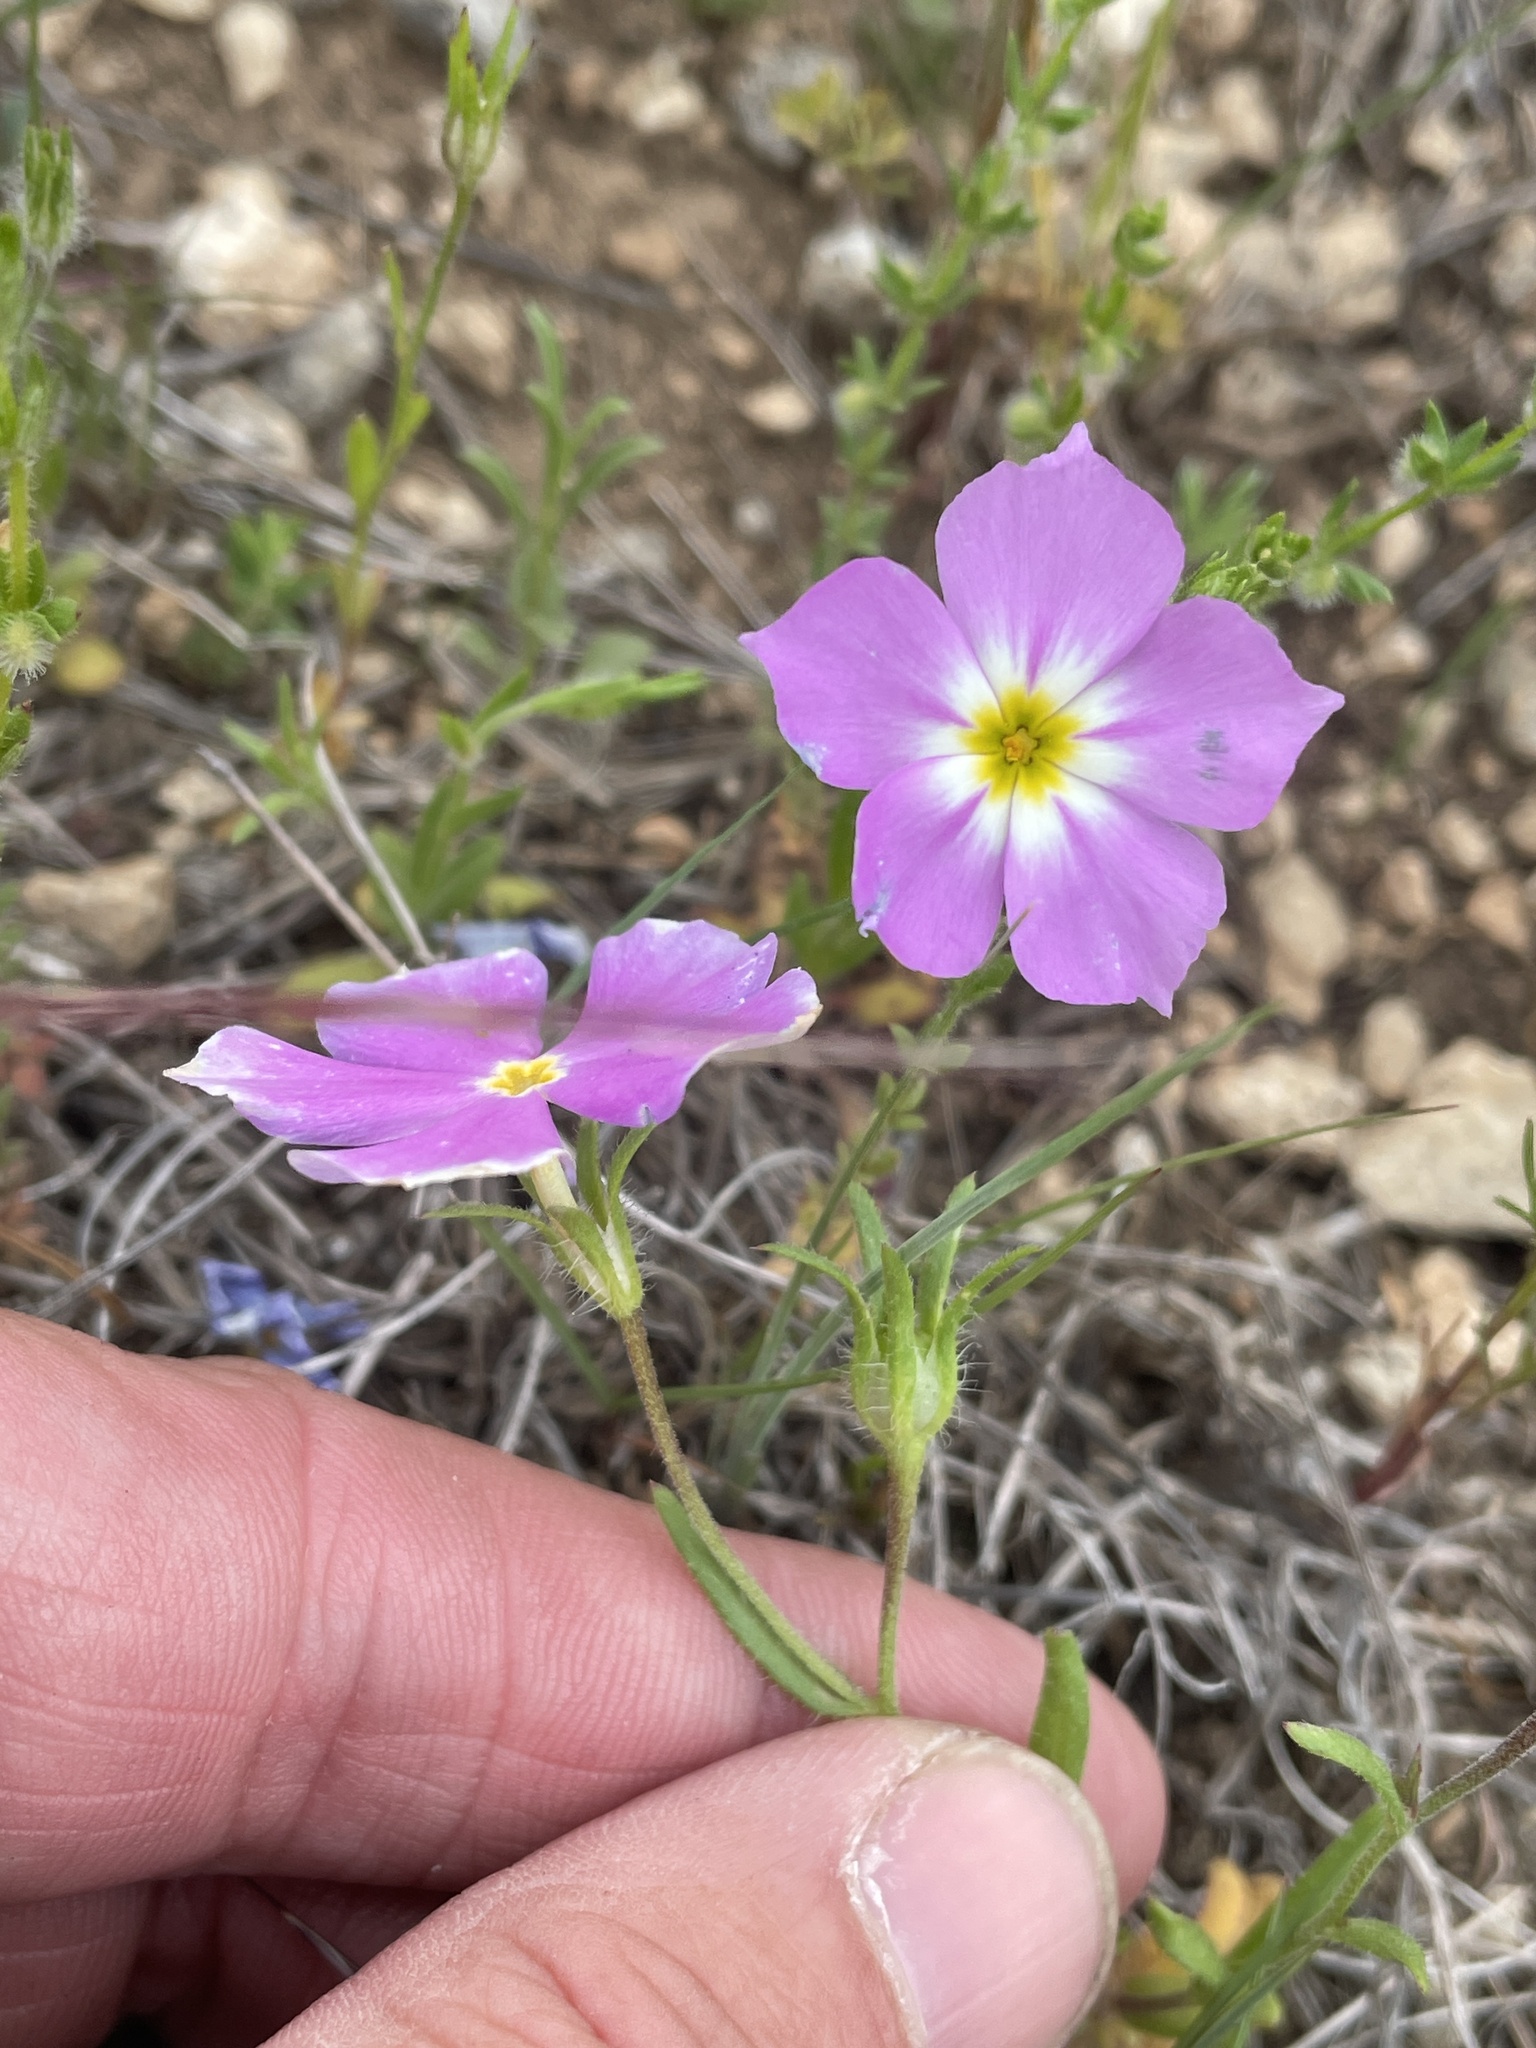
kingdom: Plantae
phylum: Tracheophyta
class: Magnoliopsida
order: Ericales
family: Polemoniaceae
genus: Phlox
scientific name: Phlox roemeriana
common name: Roemer's phlox
